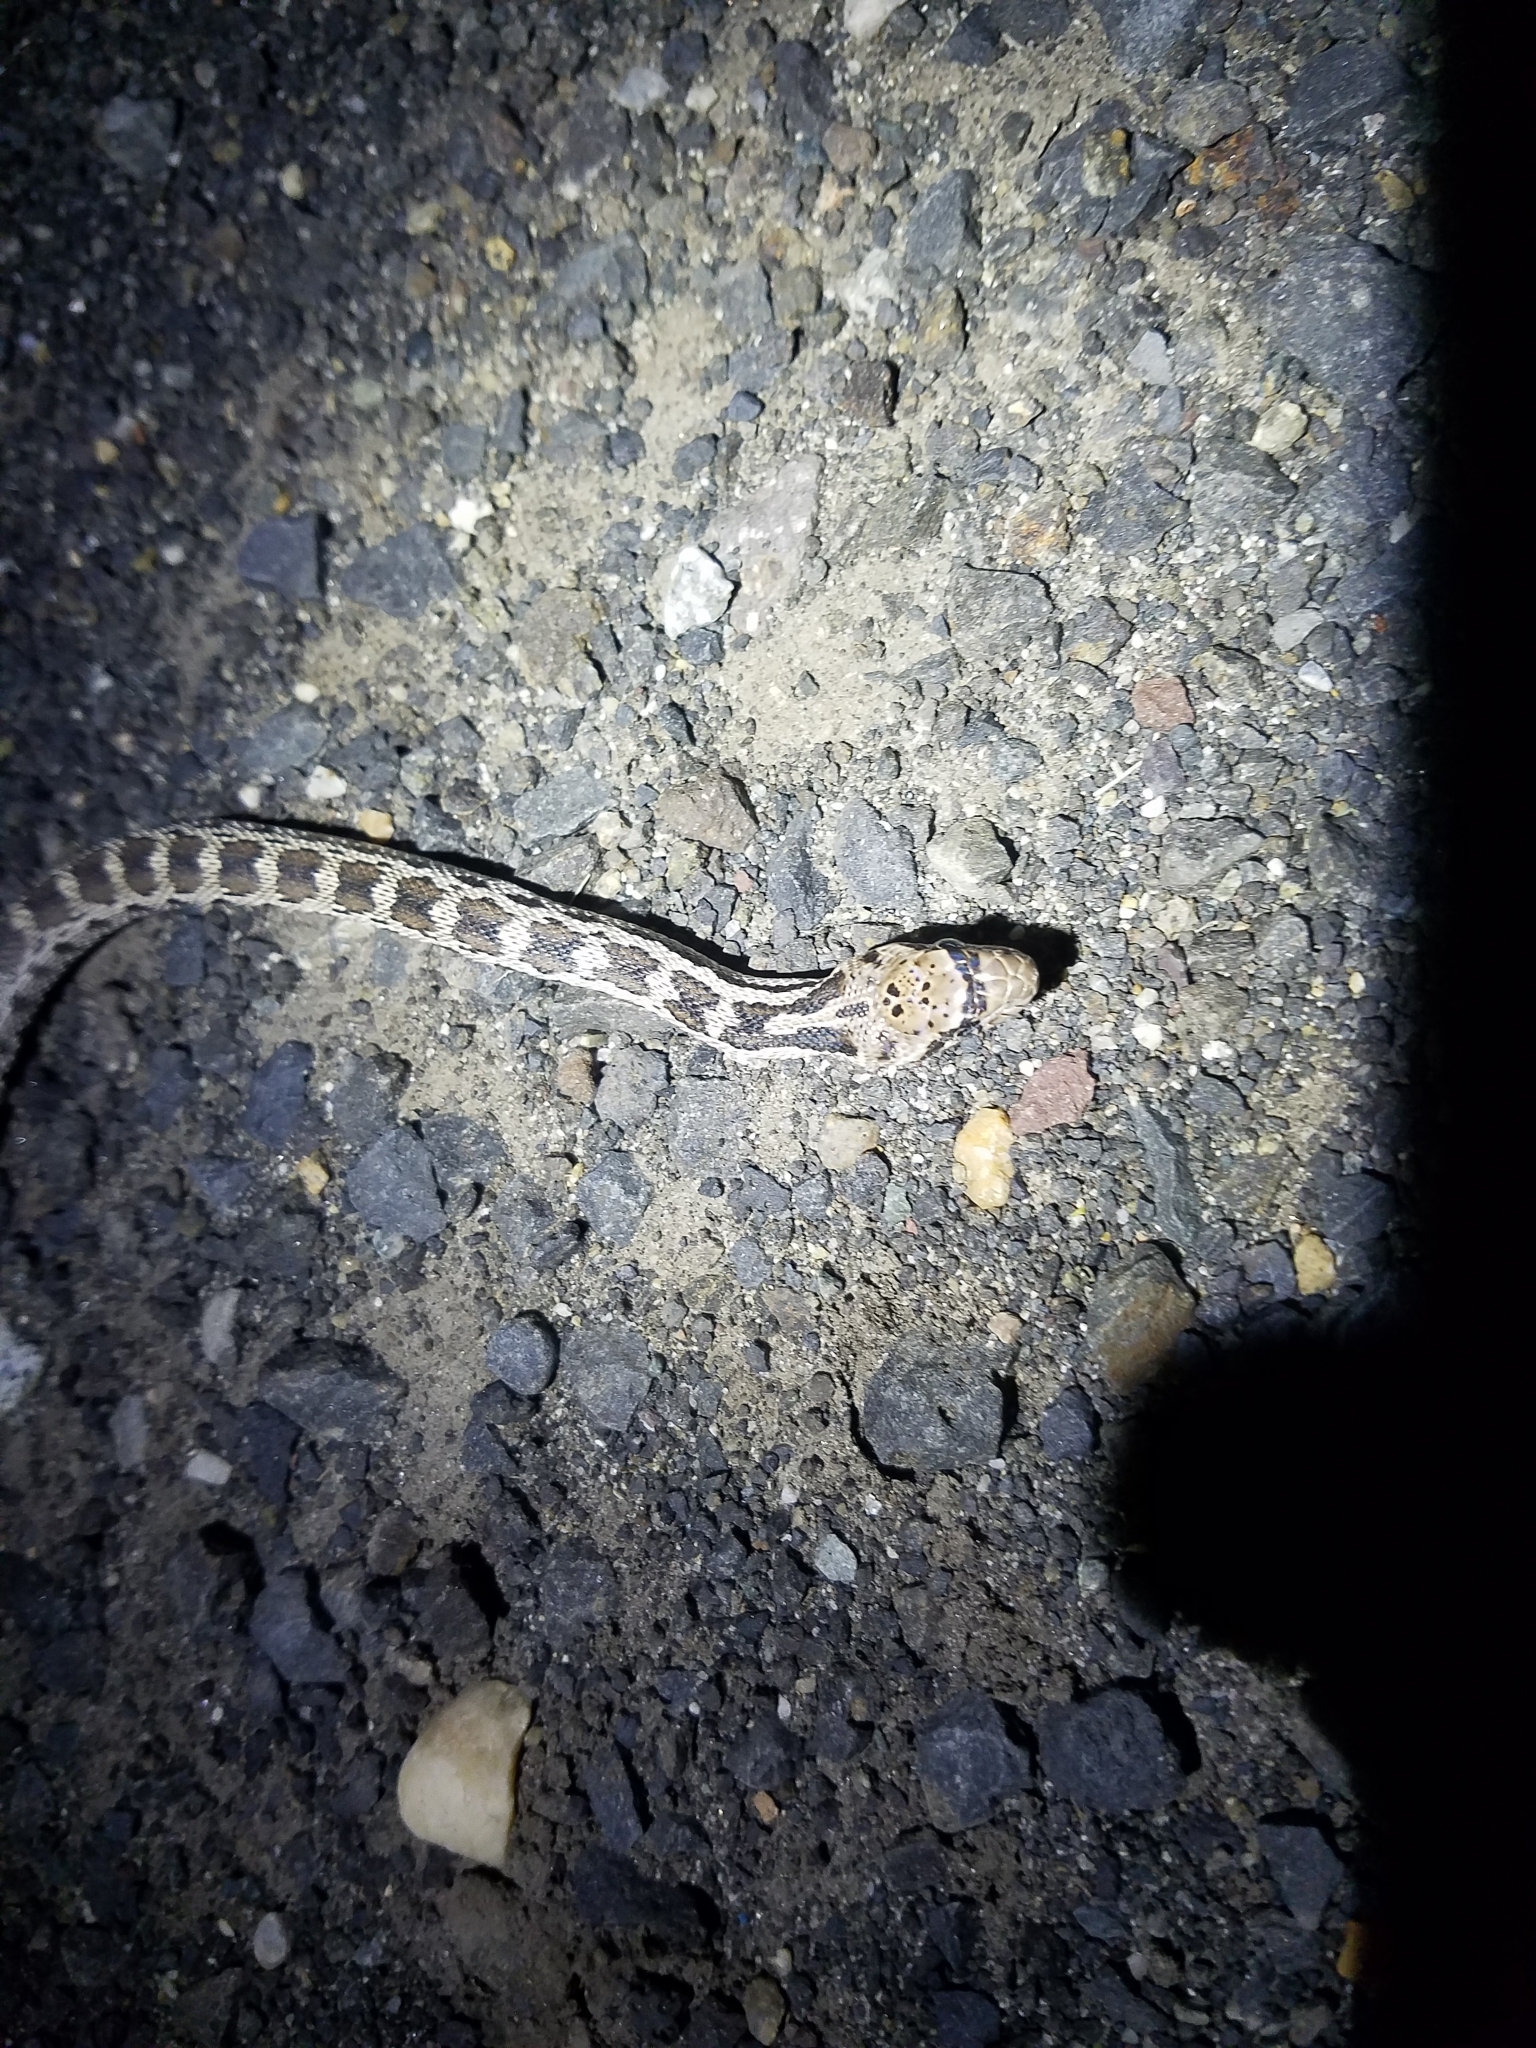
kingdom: Animalia
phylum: Chordata
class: Squamata
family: Colubridae
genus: Pituophis
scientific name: Pituophis catenifer
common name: Gopher snake
